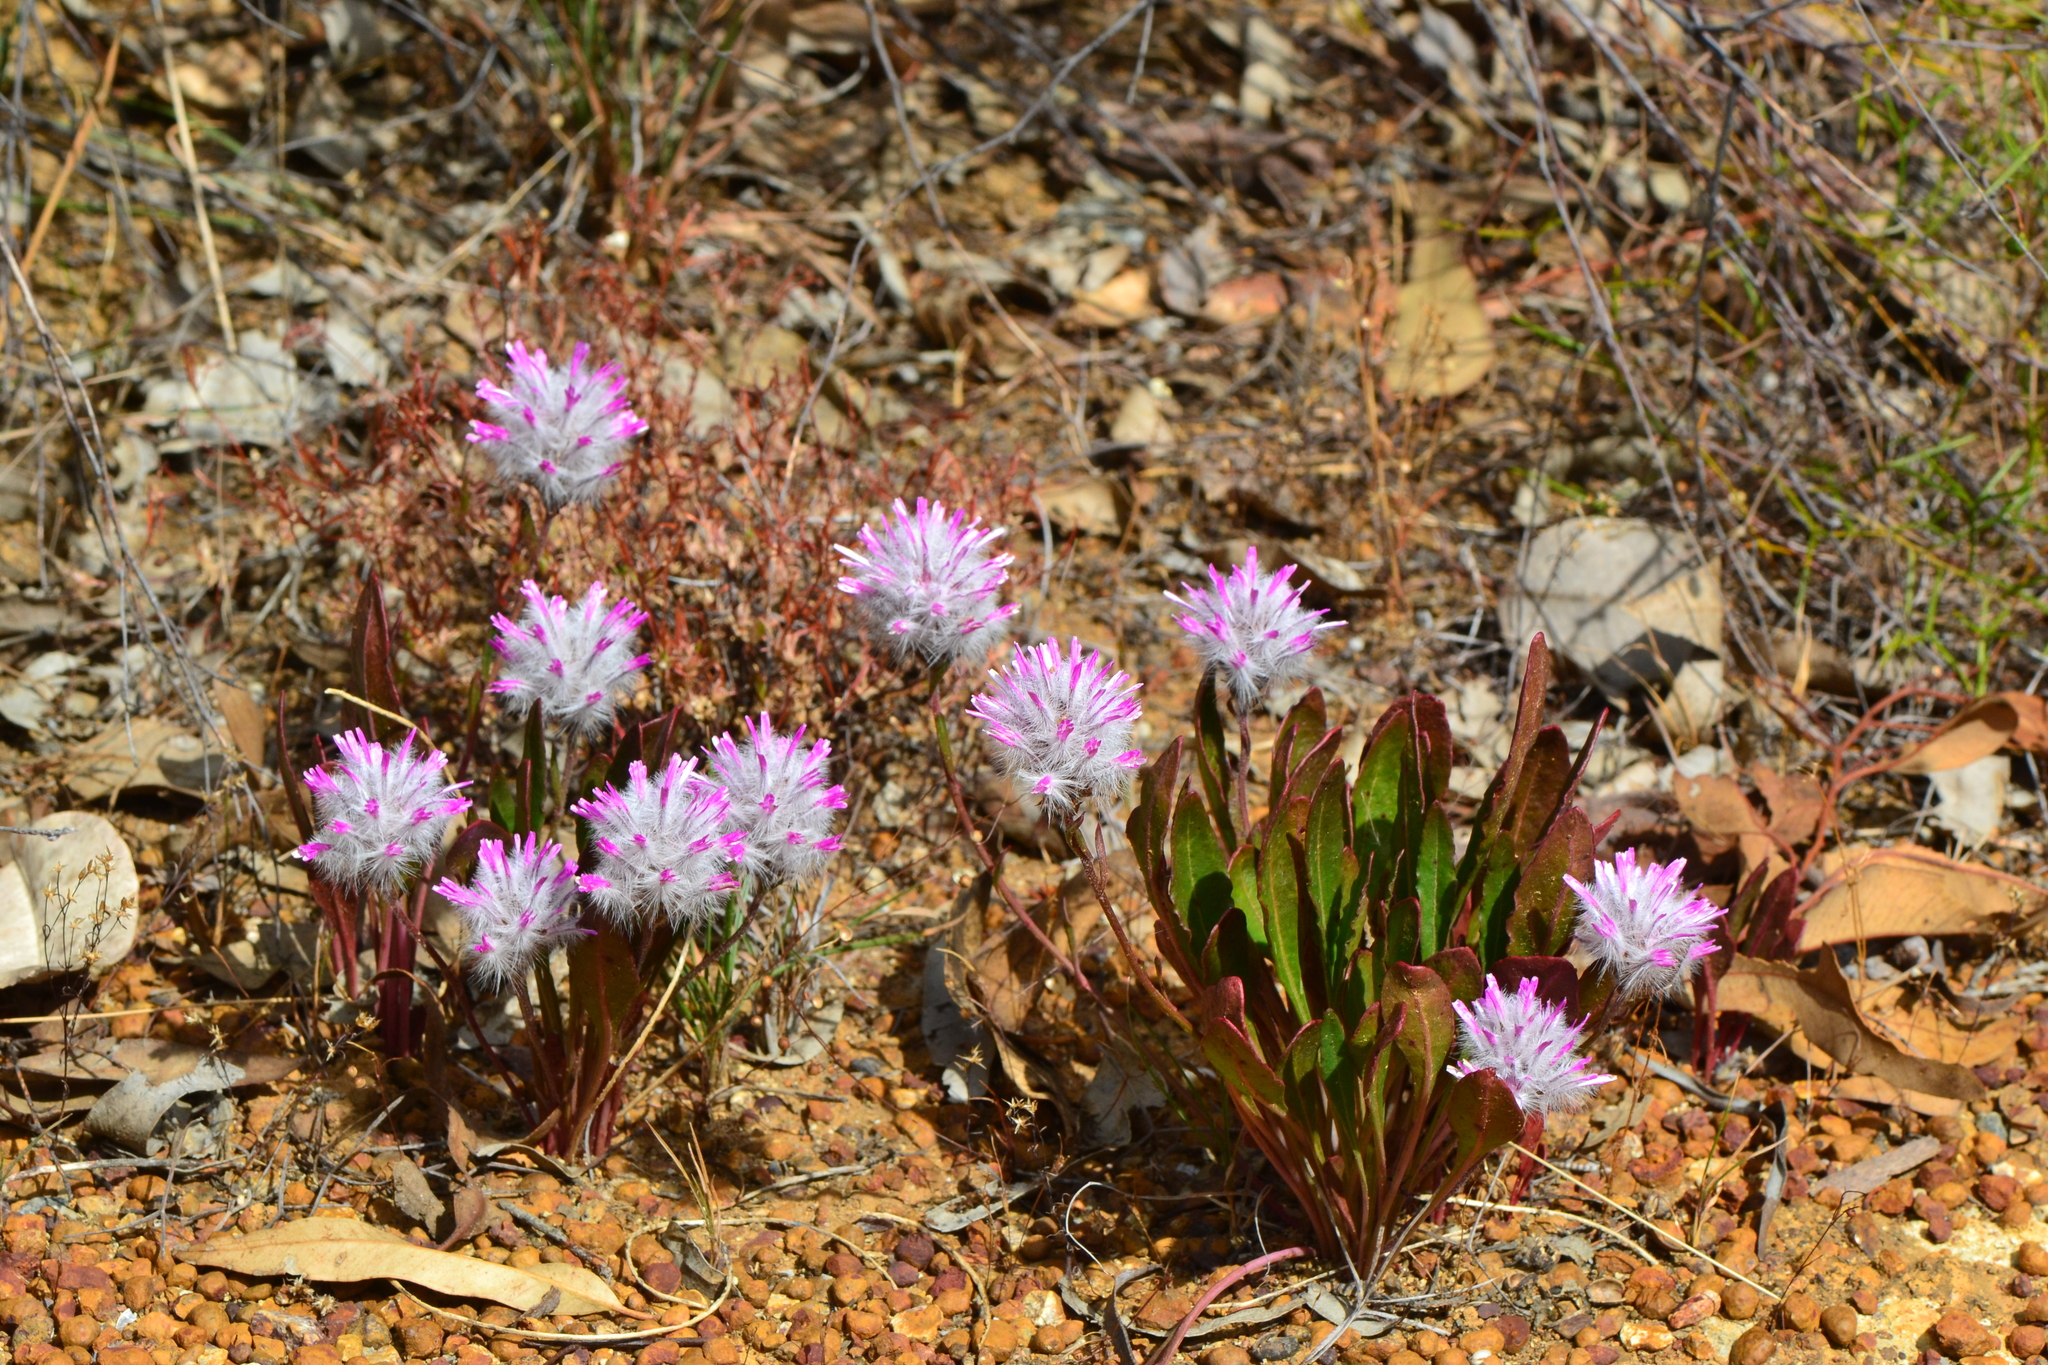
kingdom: Plantae
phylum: Tracheophyta
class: Magnoliopsida
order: Caryophyllales
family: Amaranthaceae
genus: Ptilotus
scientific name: Ptilotus manglesii
